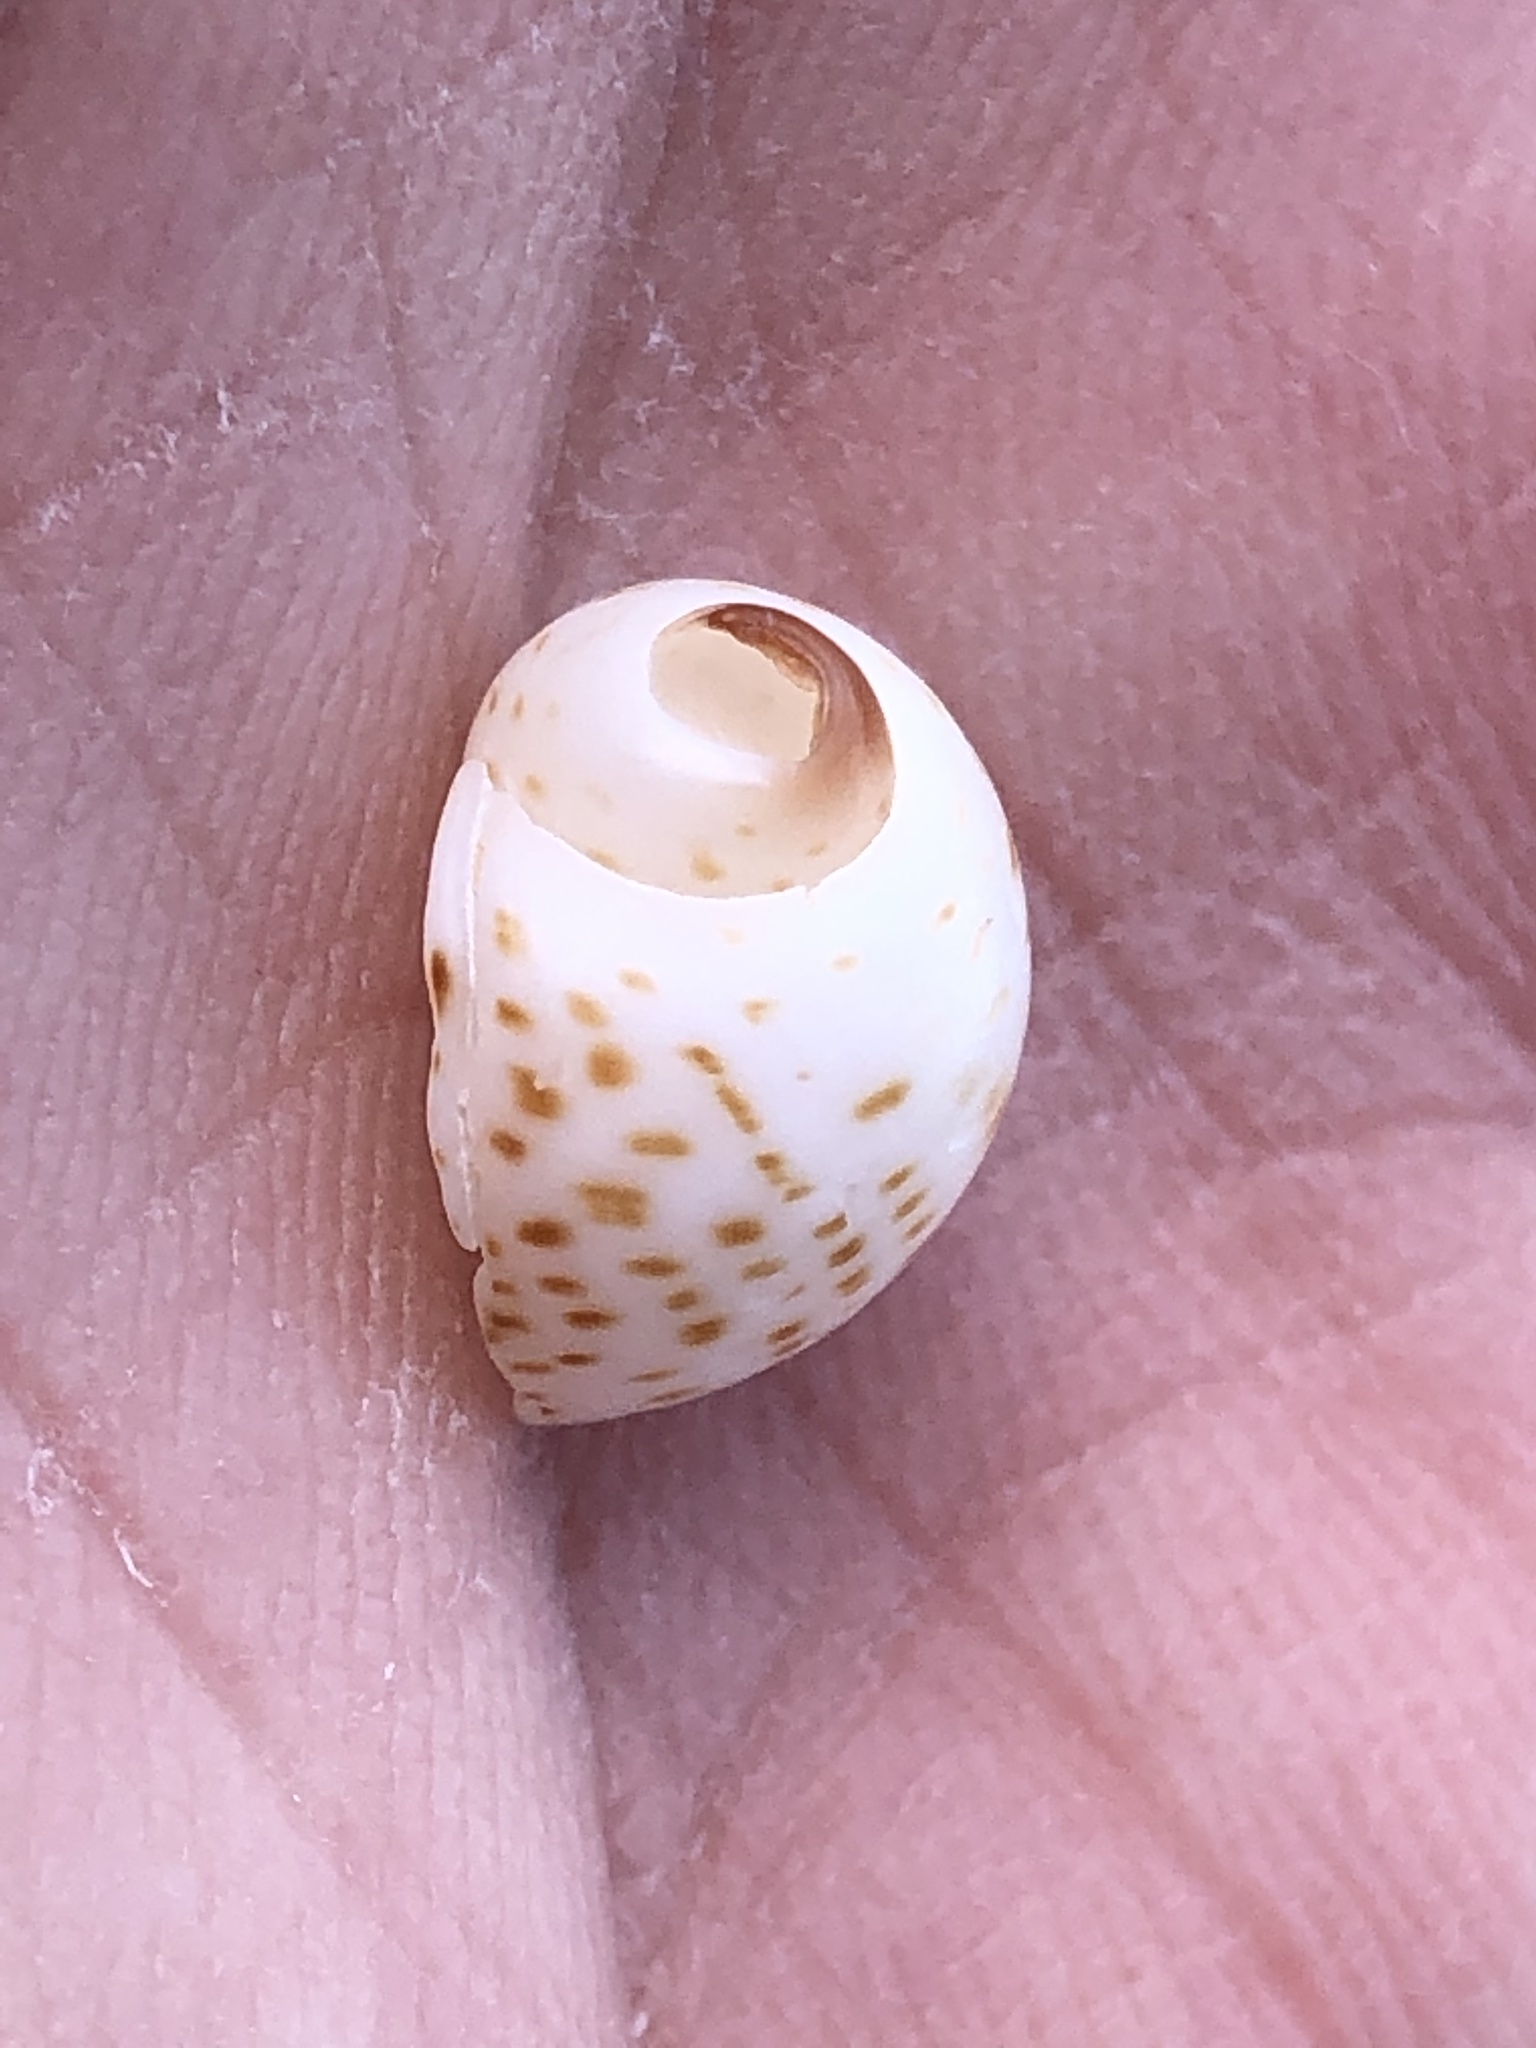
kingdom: Animalia
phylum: Mollusca
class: Gastropoda
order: Littorinimorpha
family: Naticidae
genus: Paratectonatica
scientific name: Paratectonatica tigrina
